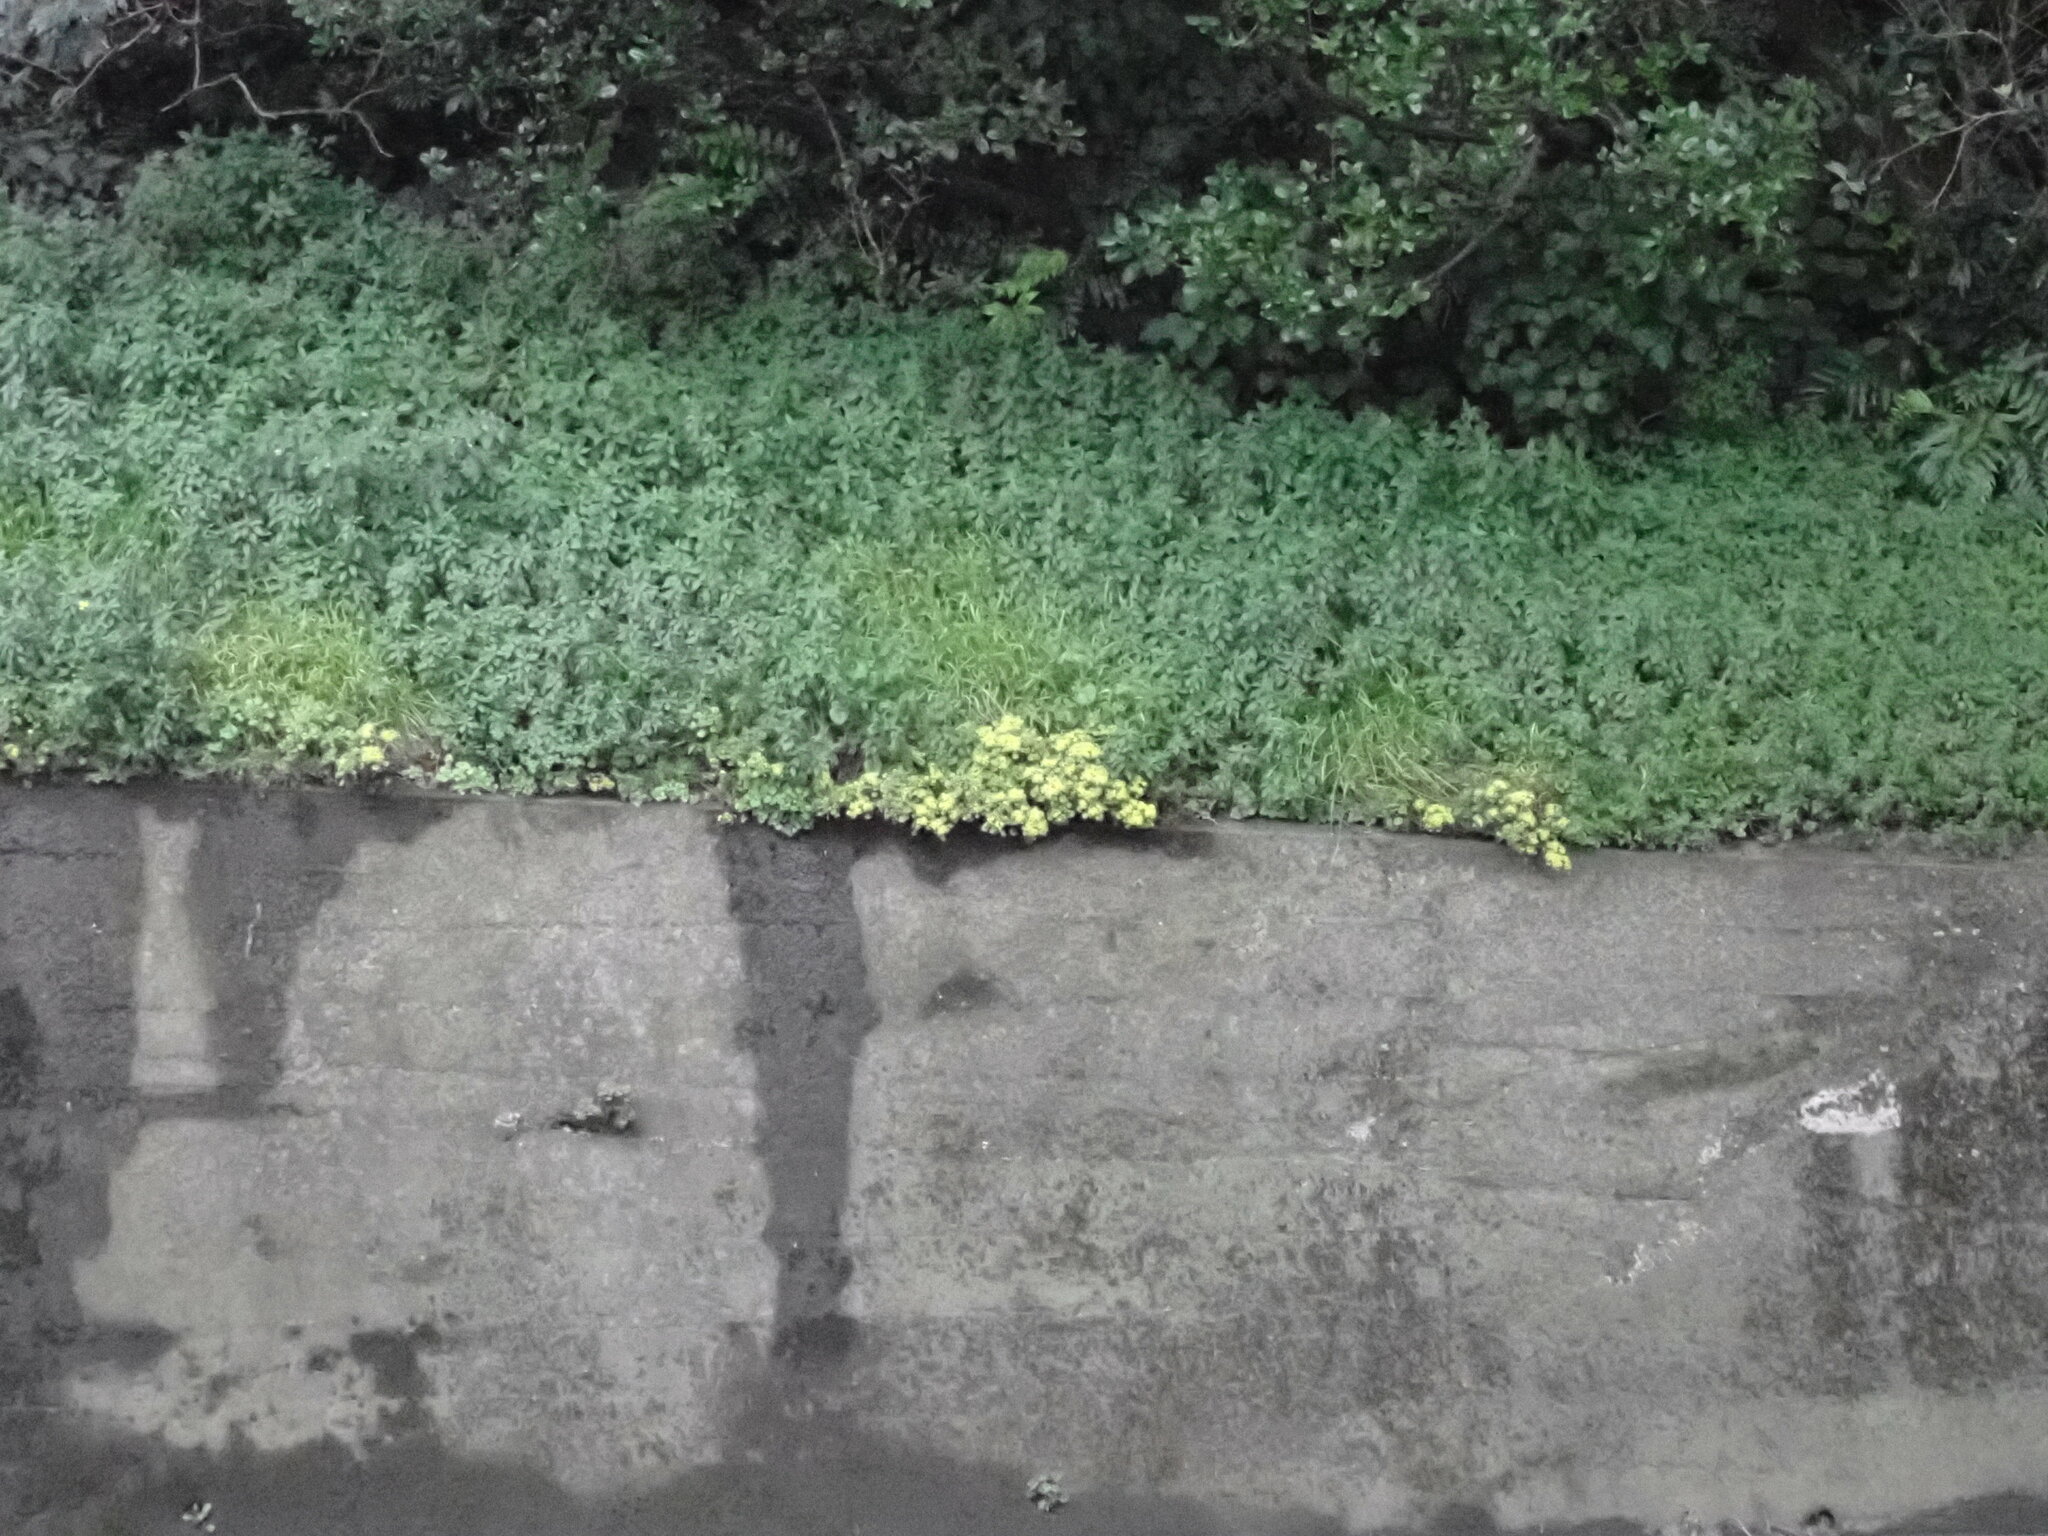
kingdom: Plantae
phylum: Tracheophyta
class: Magnoliopsida
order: Saxifragales
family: Crassulaceae
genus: Aichryson
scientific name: Aichryson laxum
